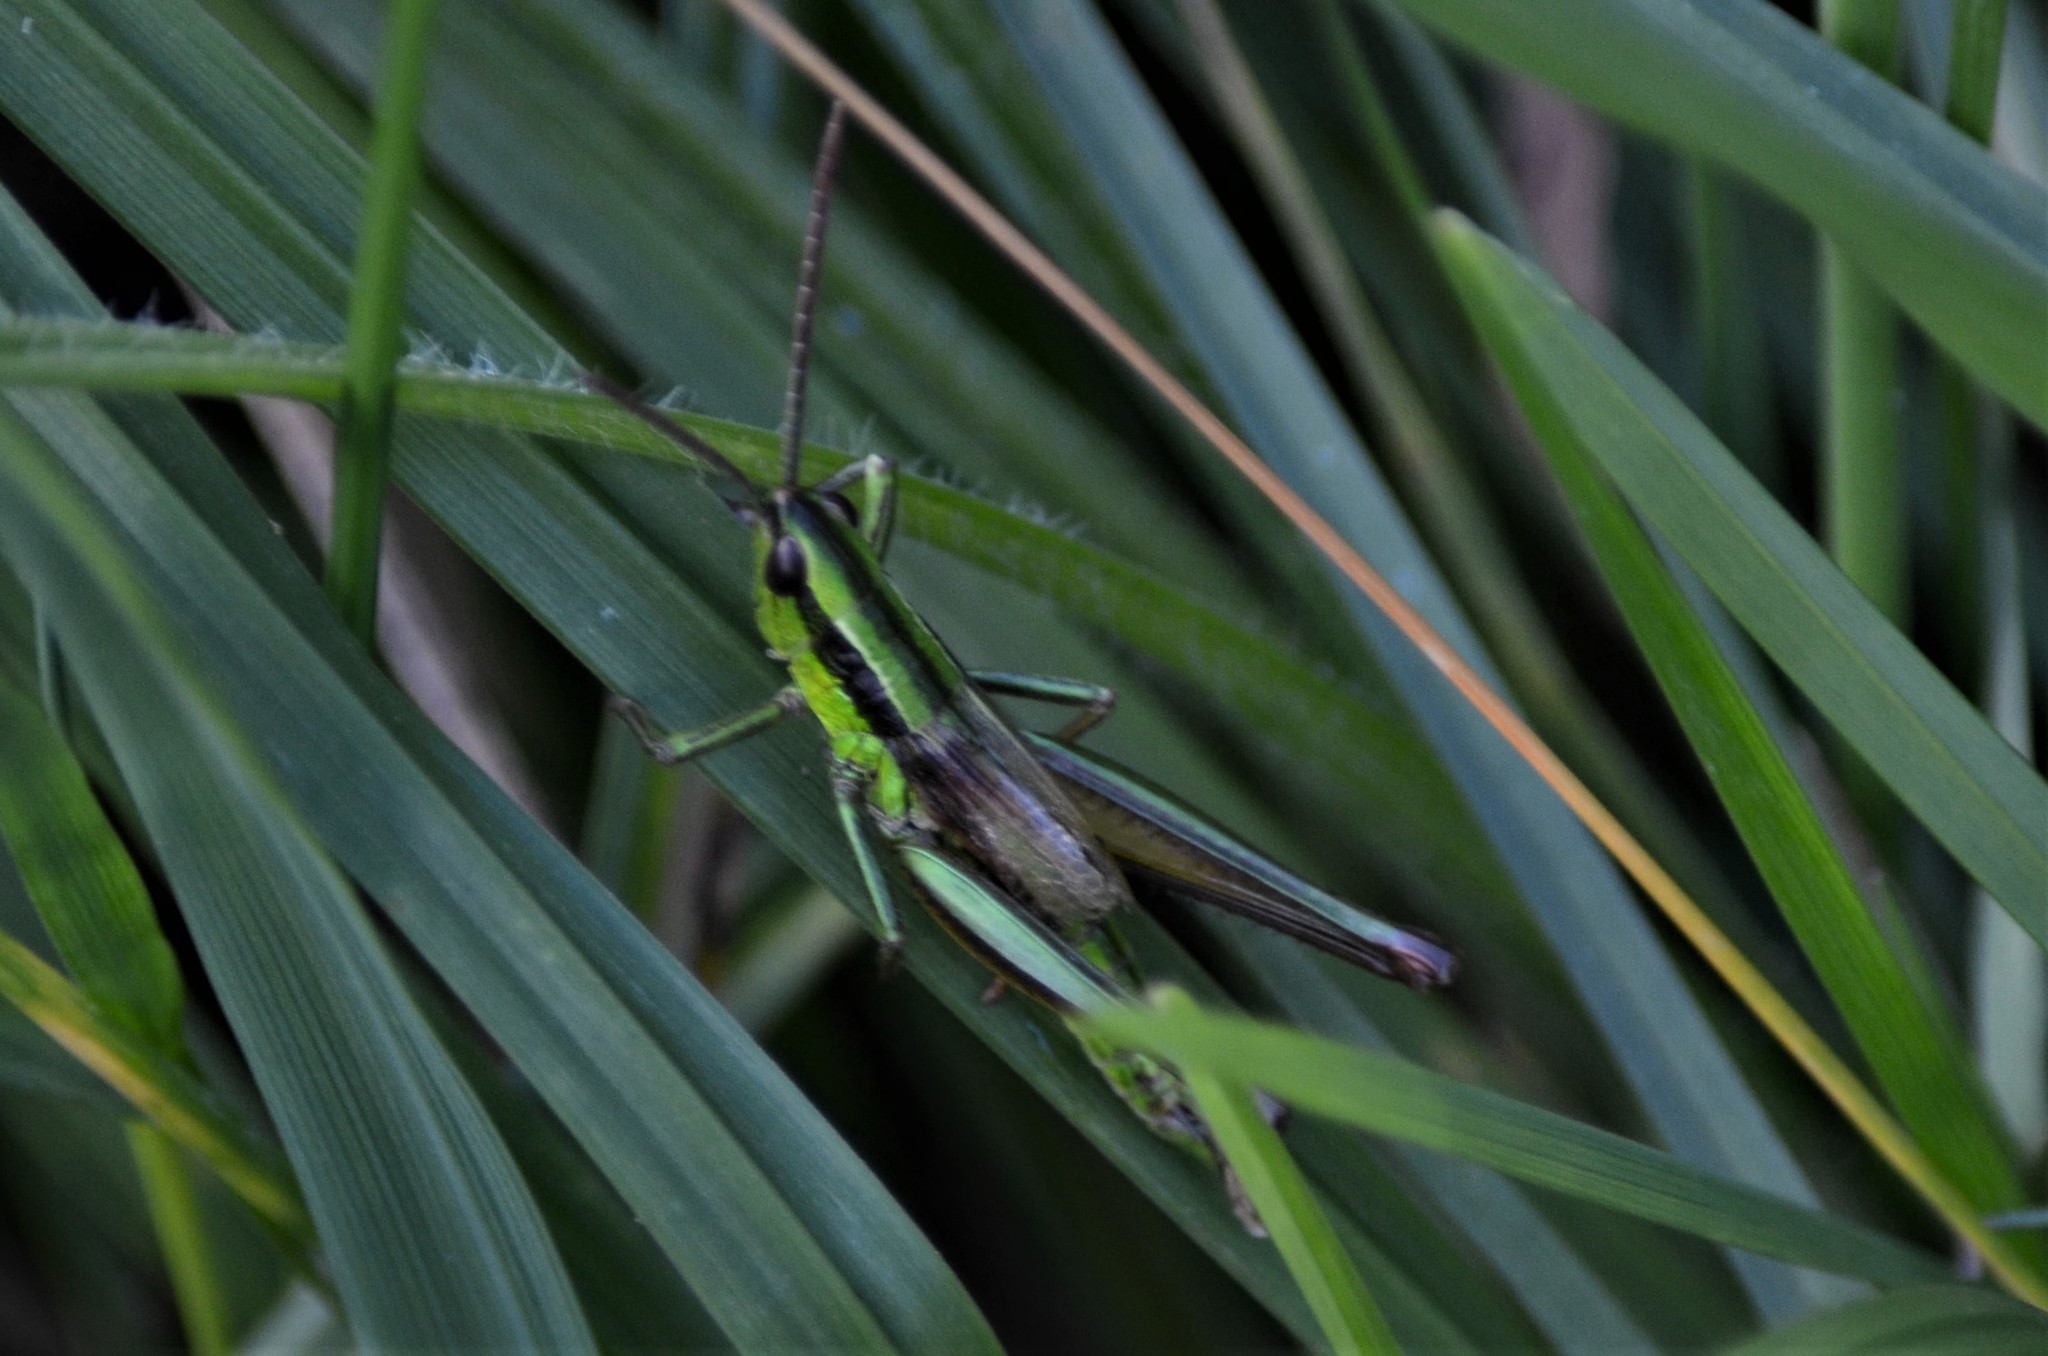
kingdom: Animalia
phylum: Arthropoda
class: Insecta
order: Orthoptera
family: Acrididae
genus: Euthystira
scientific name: Euthystira brachyptera
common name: Small gold grasshopper
